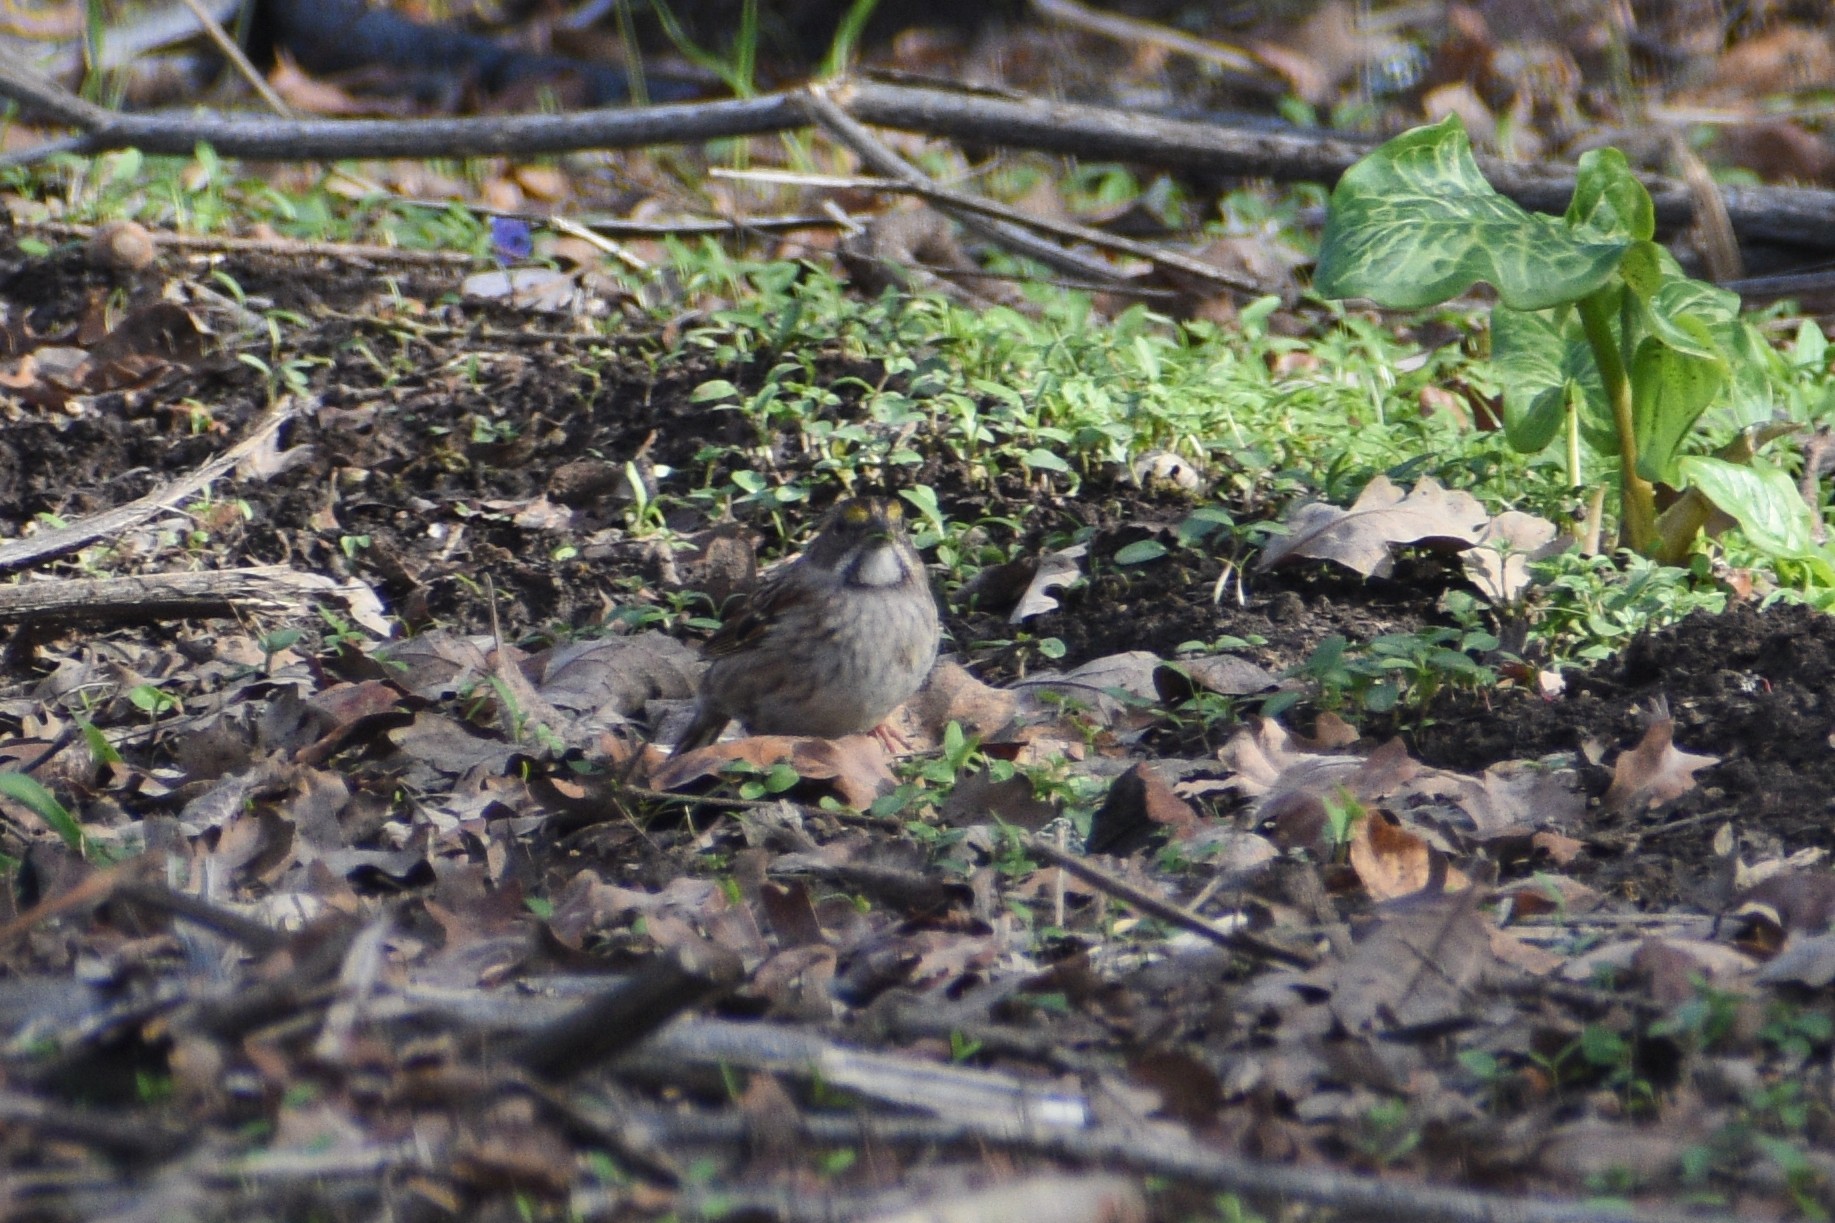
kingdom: Animalia
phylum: Chordata
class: Aves
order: Passeriformes
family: Passerellidae
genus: Zonotrichia
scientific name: Zonotrichia albicollis
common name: White-throated sparrow
